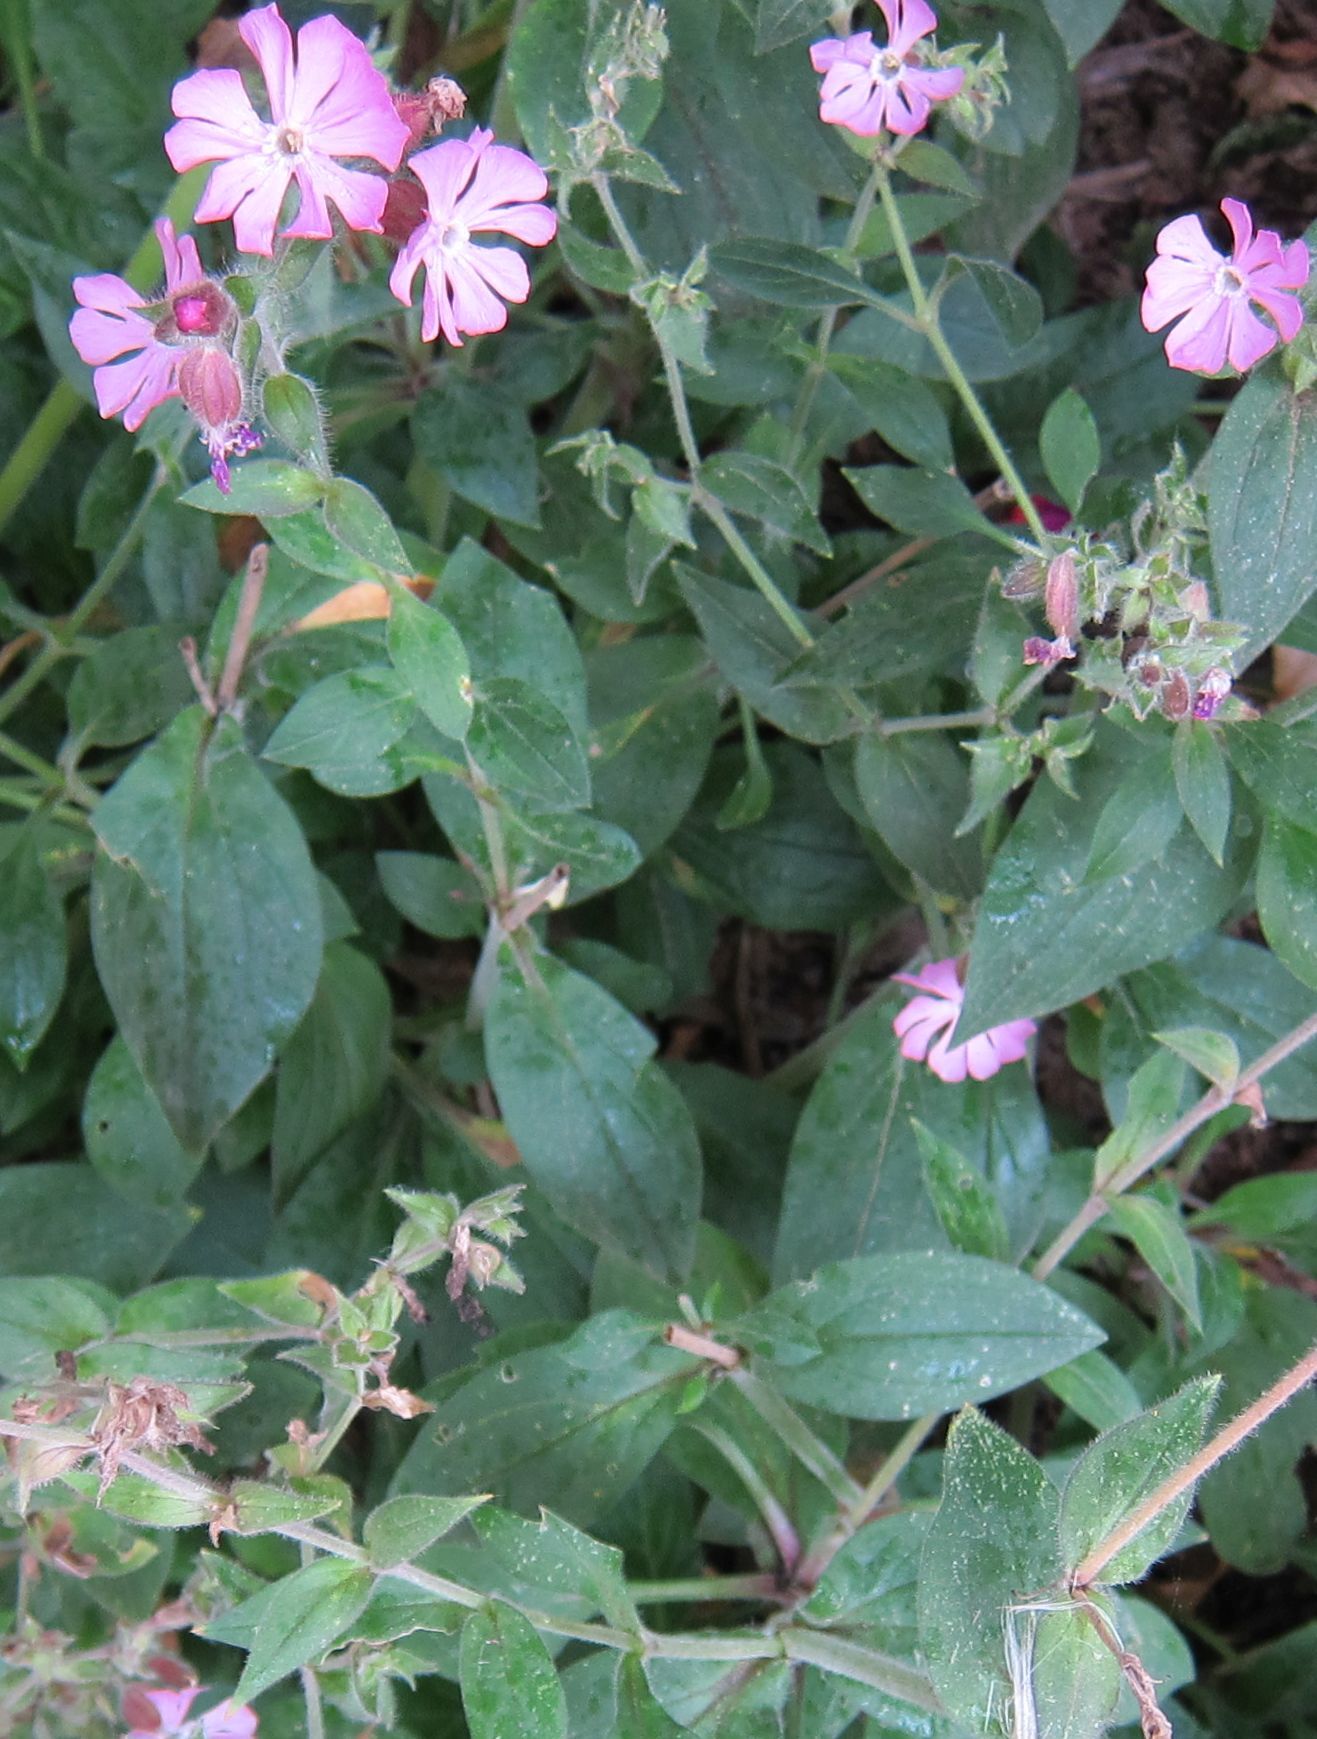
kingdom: Plantae
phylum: Tracheophyta
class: Magnoliopsida
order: Caryophyllales
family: Caryophyllaceae
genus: Silene
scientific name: Silene dioica
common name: Red campion
